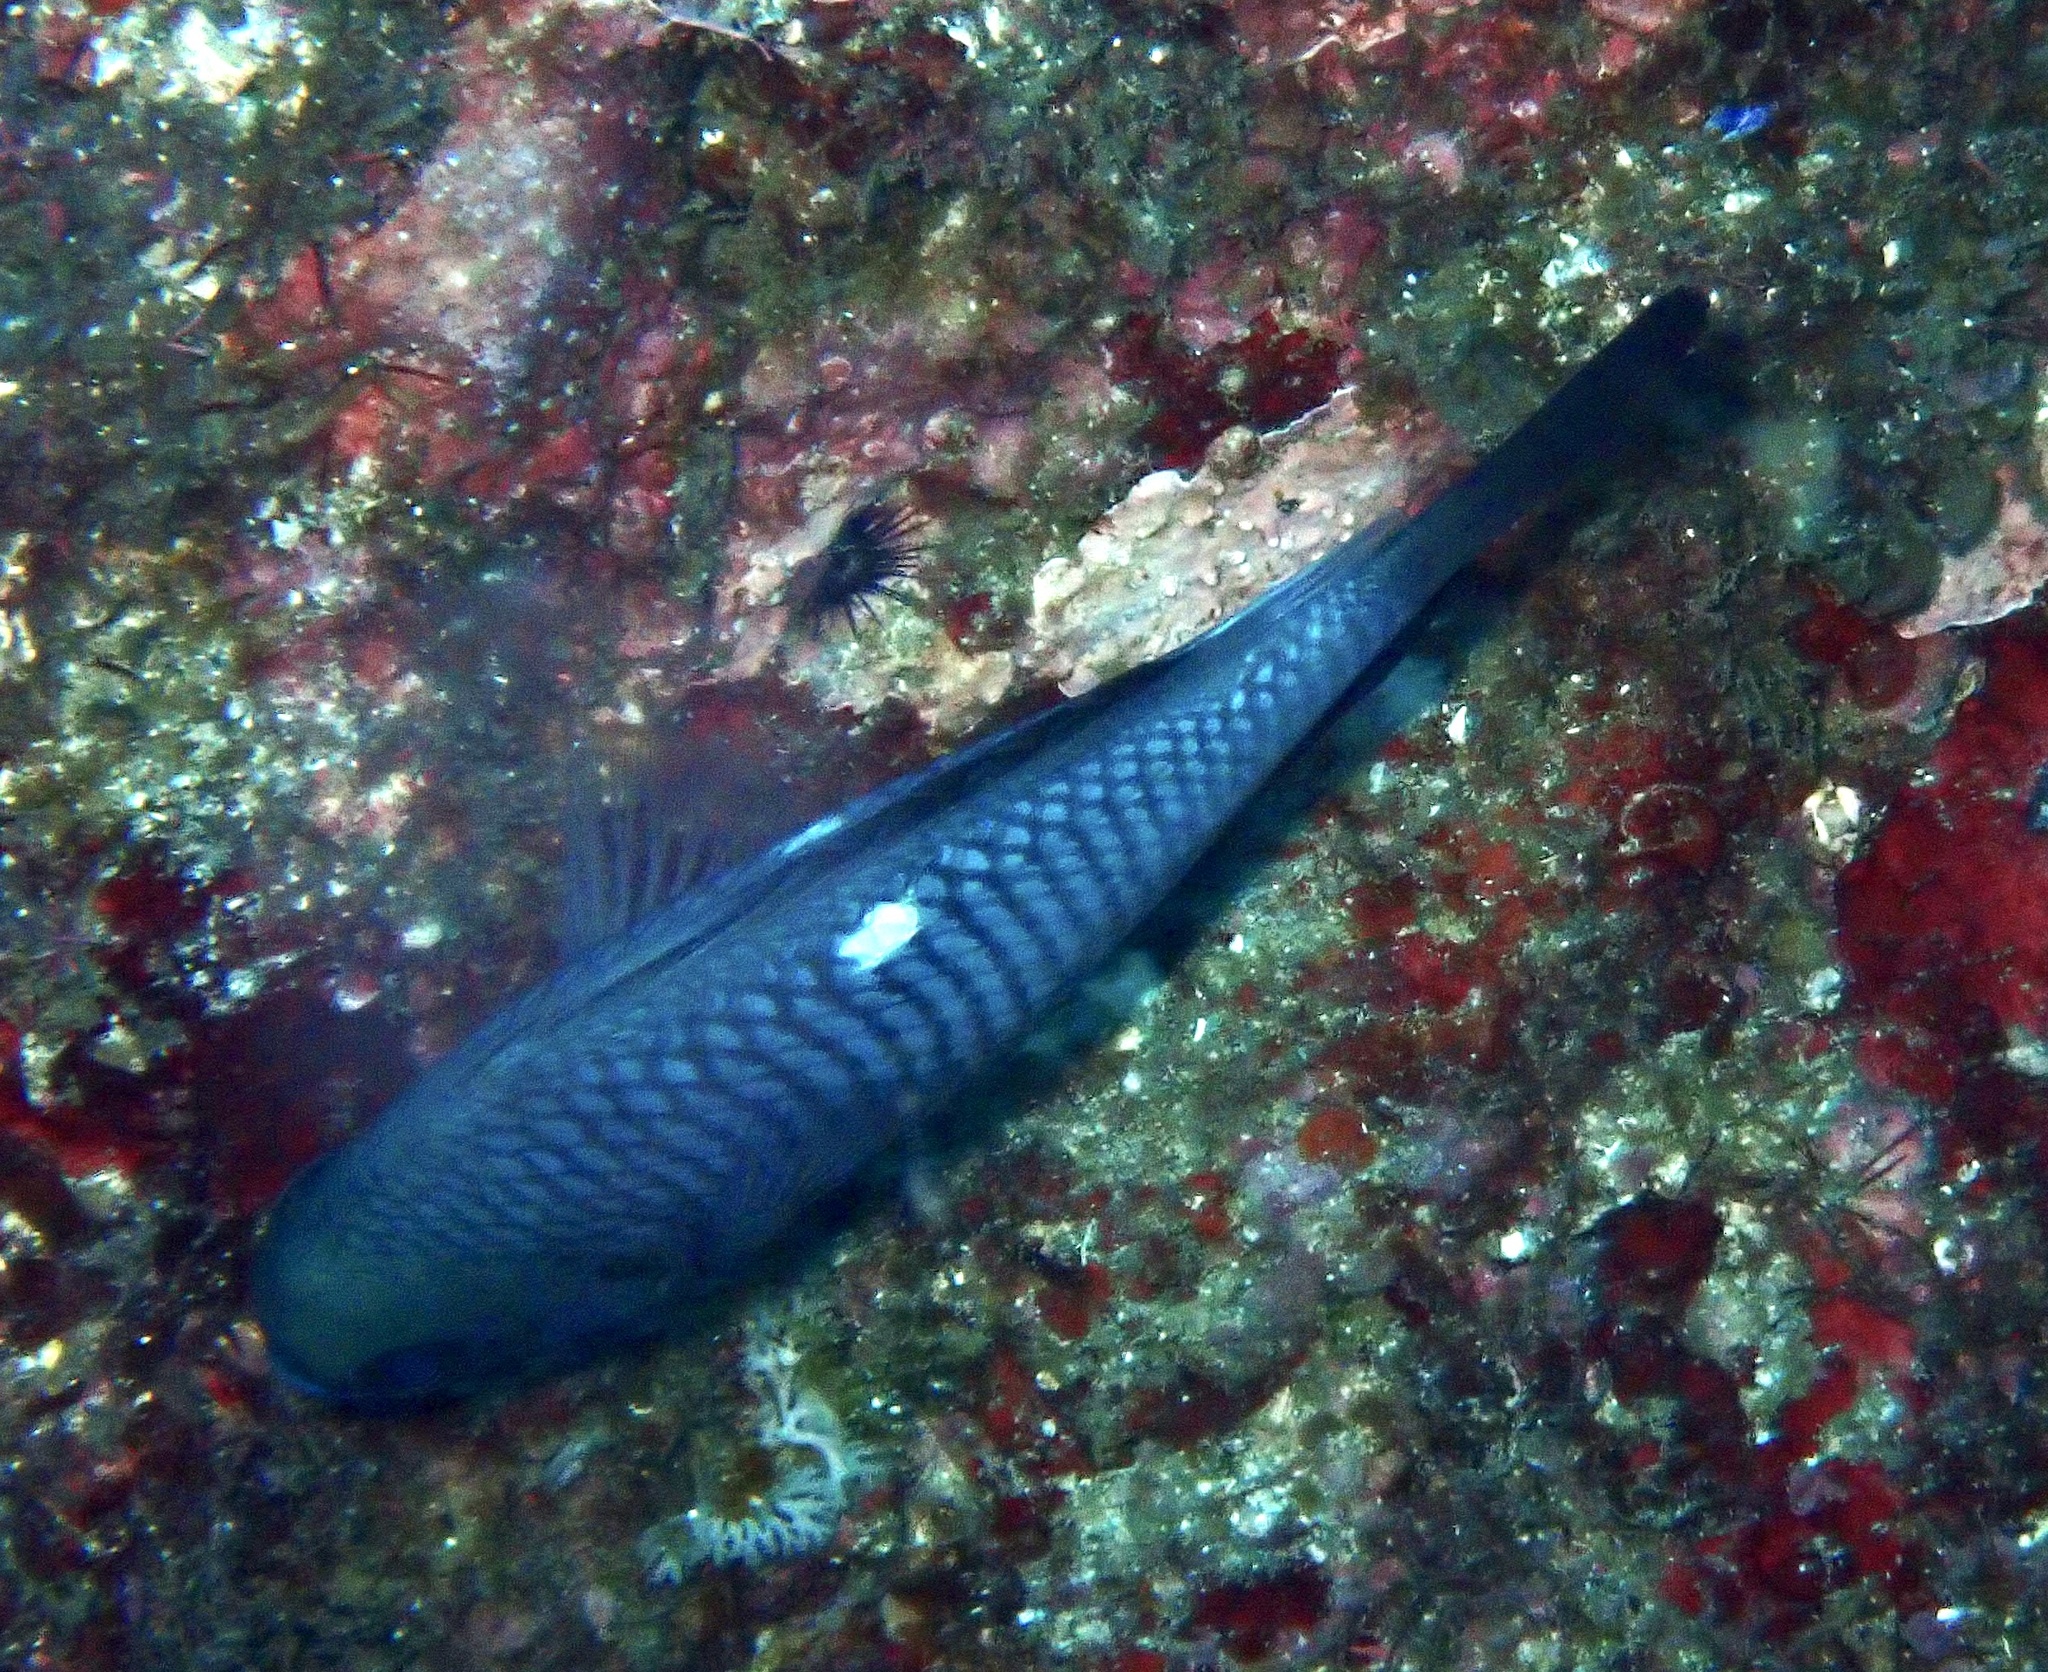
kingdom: Animalia
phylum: Chordata
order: Perciformes
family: Pomacentridae
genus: Dascyllus
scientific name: Dascyllus trimaculatus
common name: Threespot dascyllus
